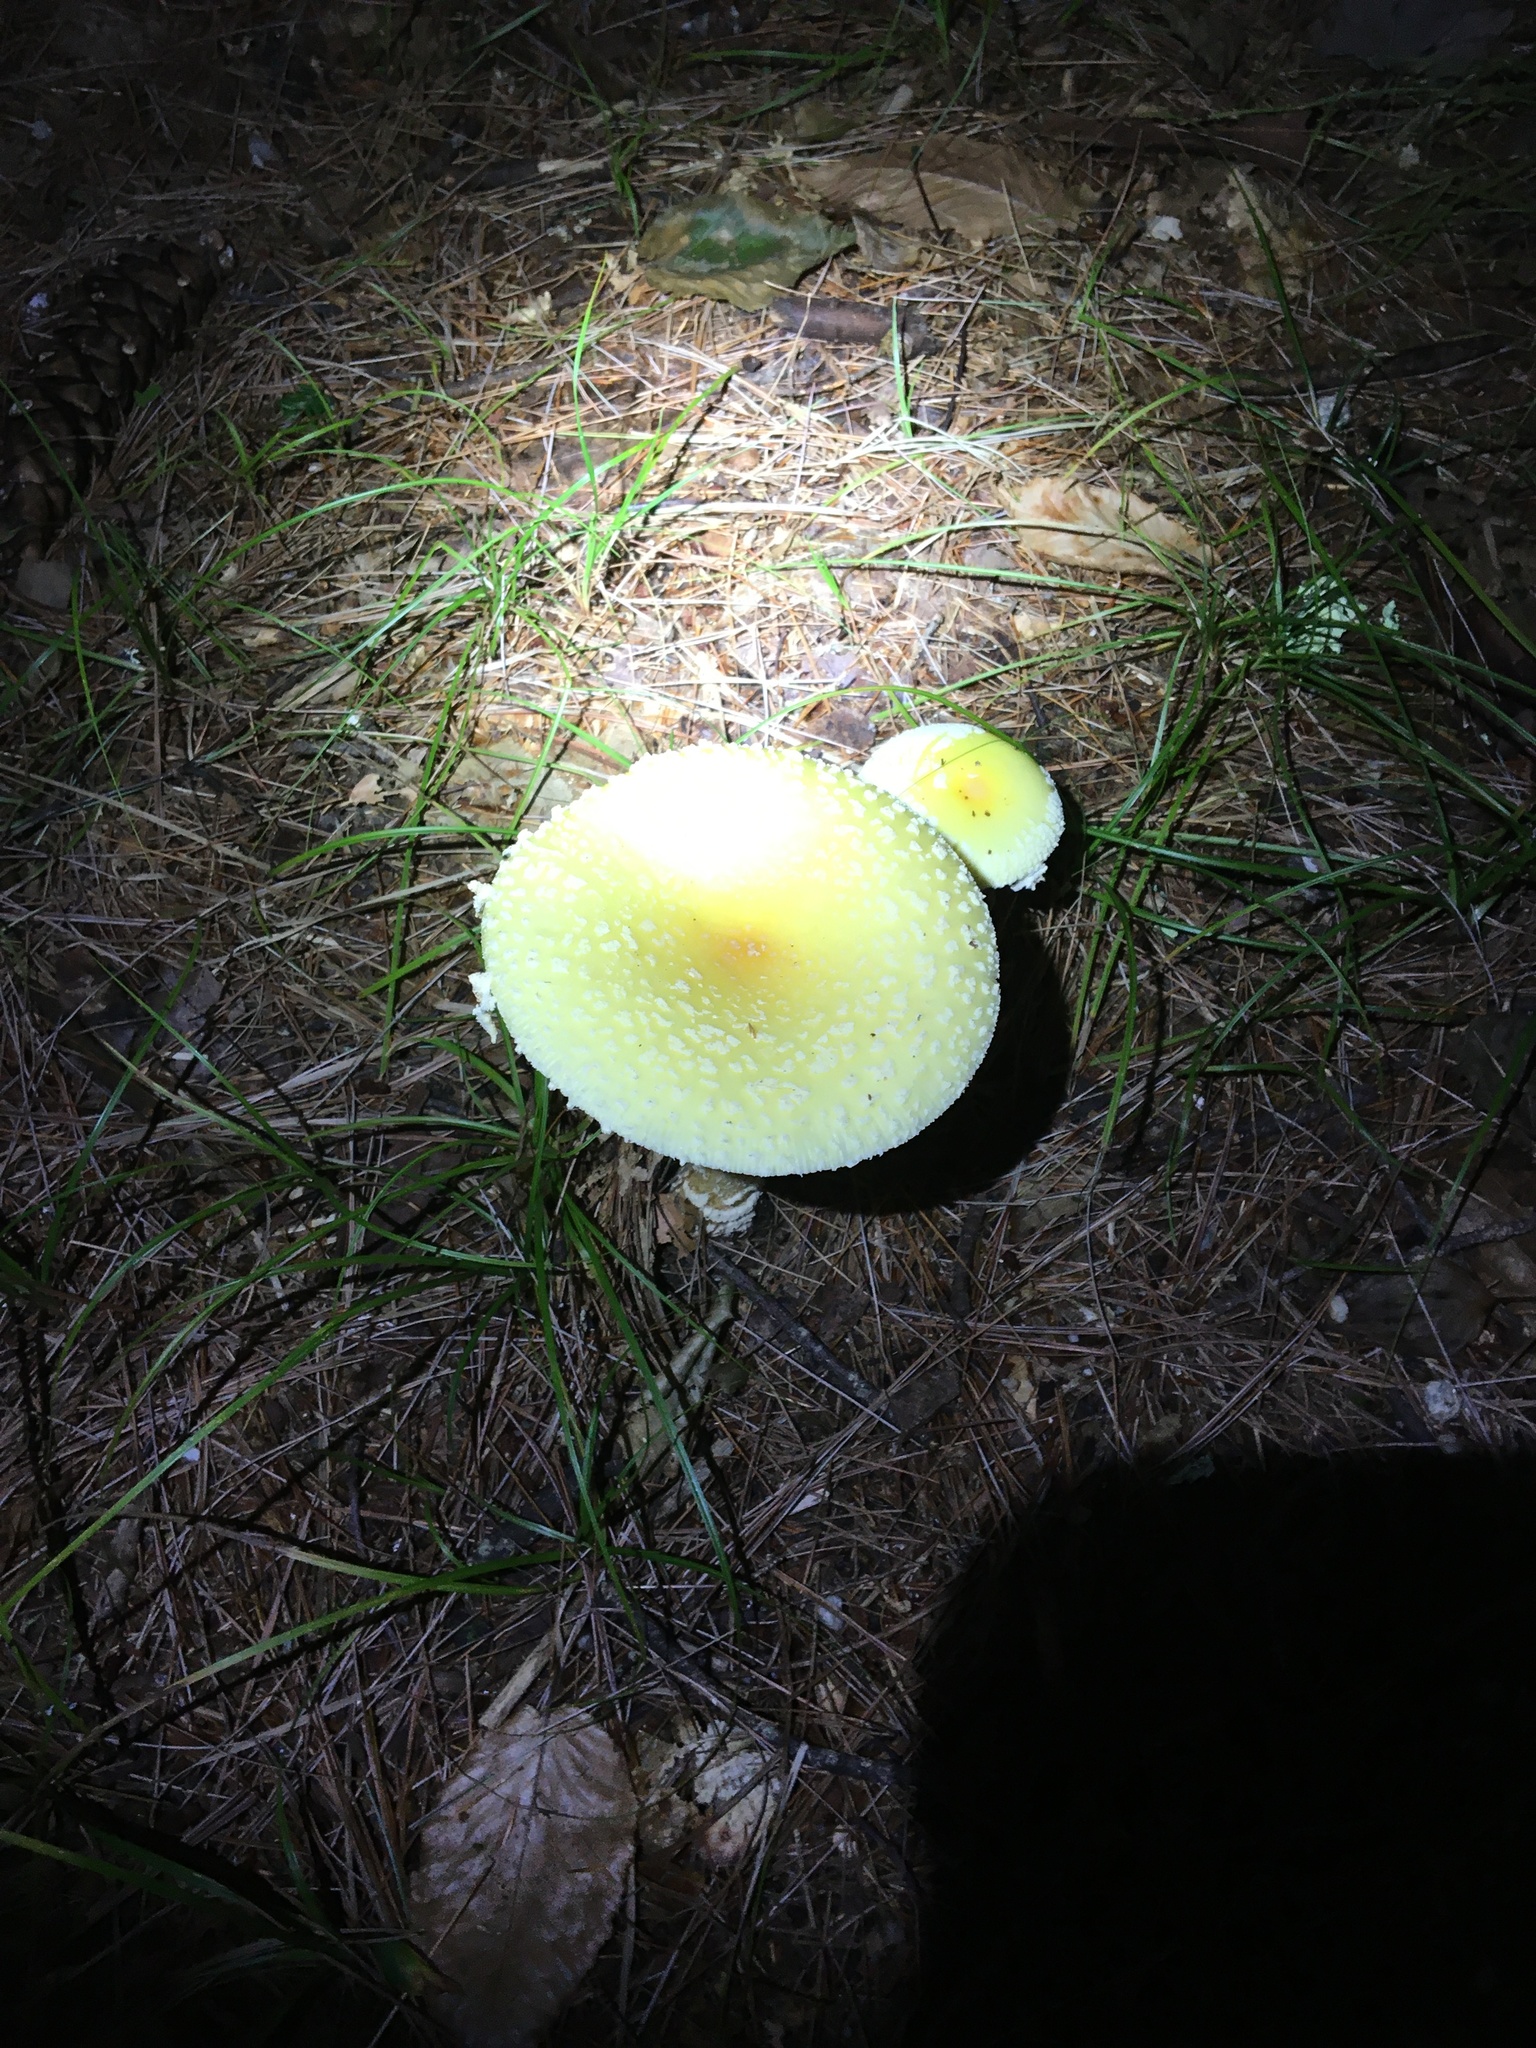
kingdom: Fungi
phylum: Basidiomycota
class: Agaricomycetes
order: Agaricales
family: Amanitaceae
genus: Amanita
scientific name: Amanita muscaria
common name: Fly agaric
